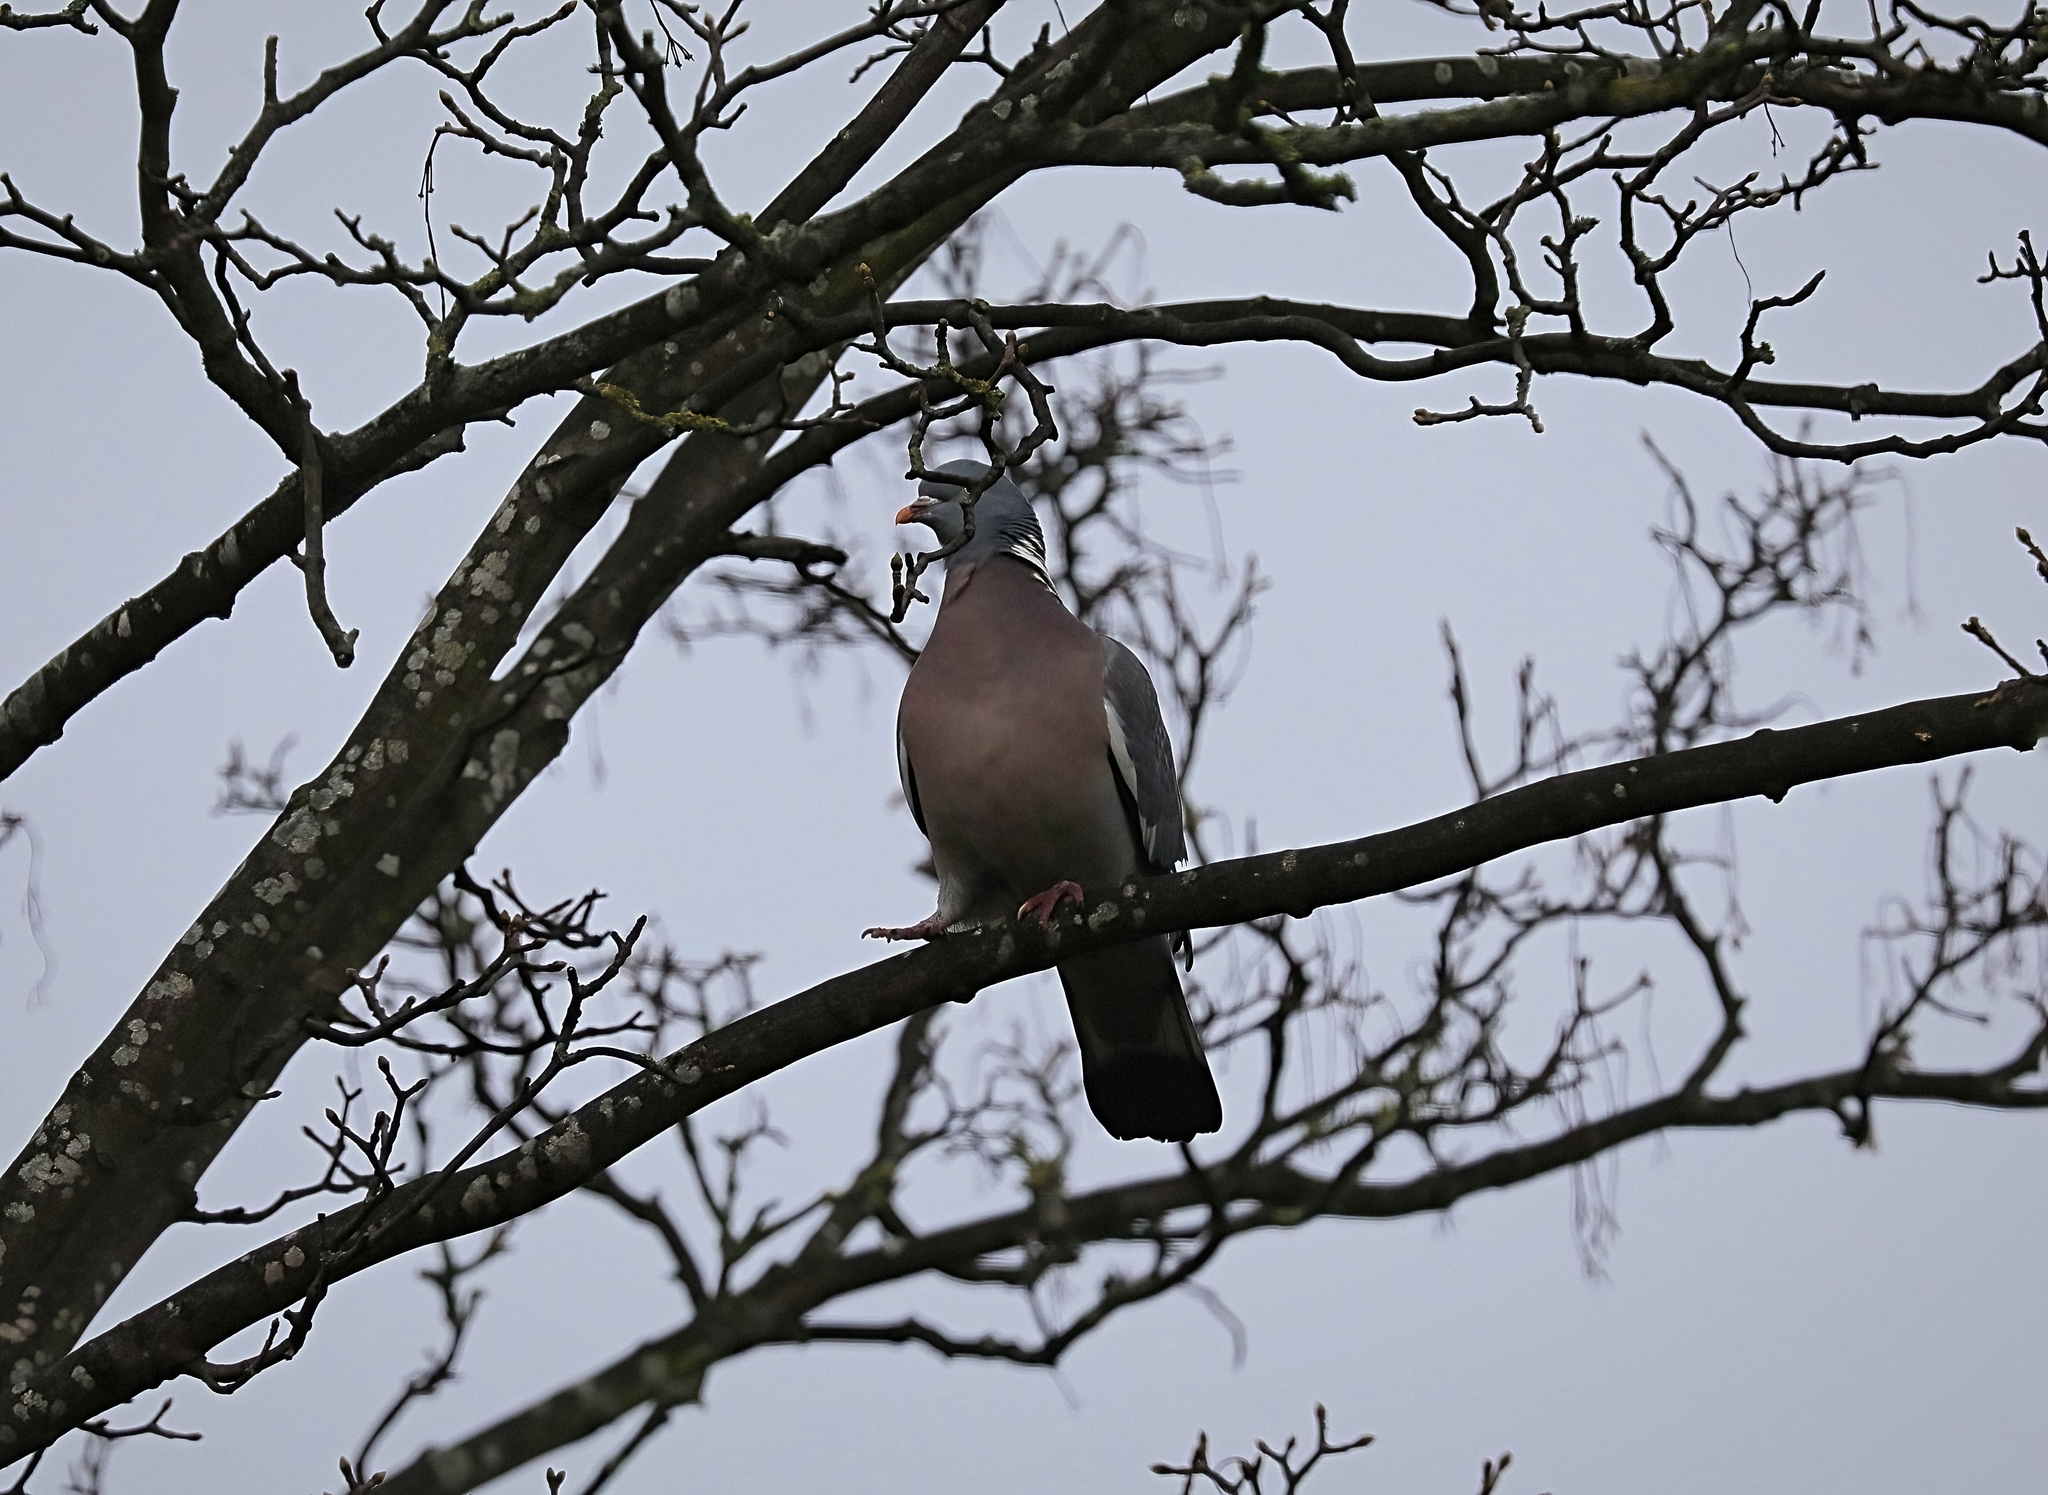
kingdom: Animalia
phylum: Chordata
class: Aves
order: Columbiformes
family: Columbidae
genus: Columba
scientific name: Columba palumbus
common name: Common wood pigeon
